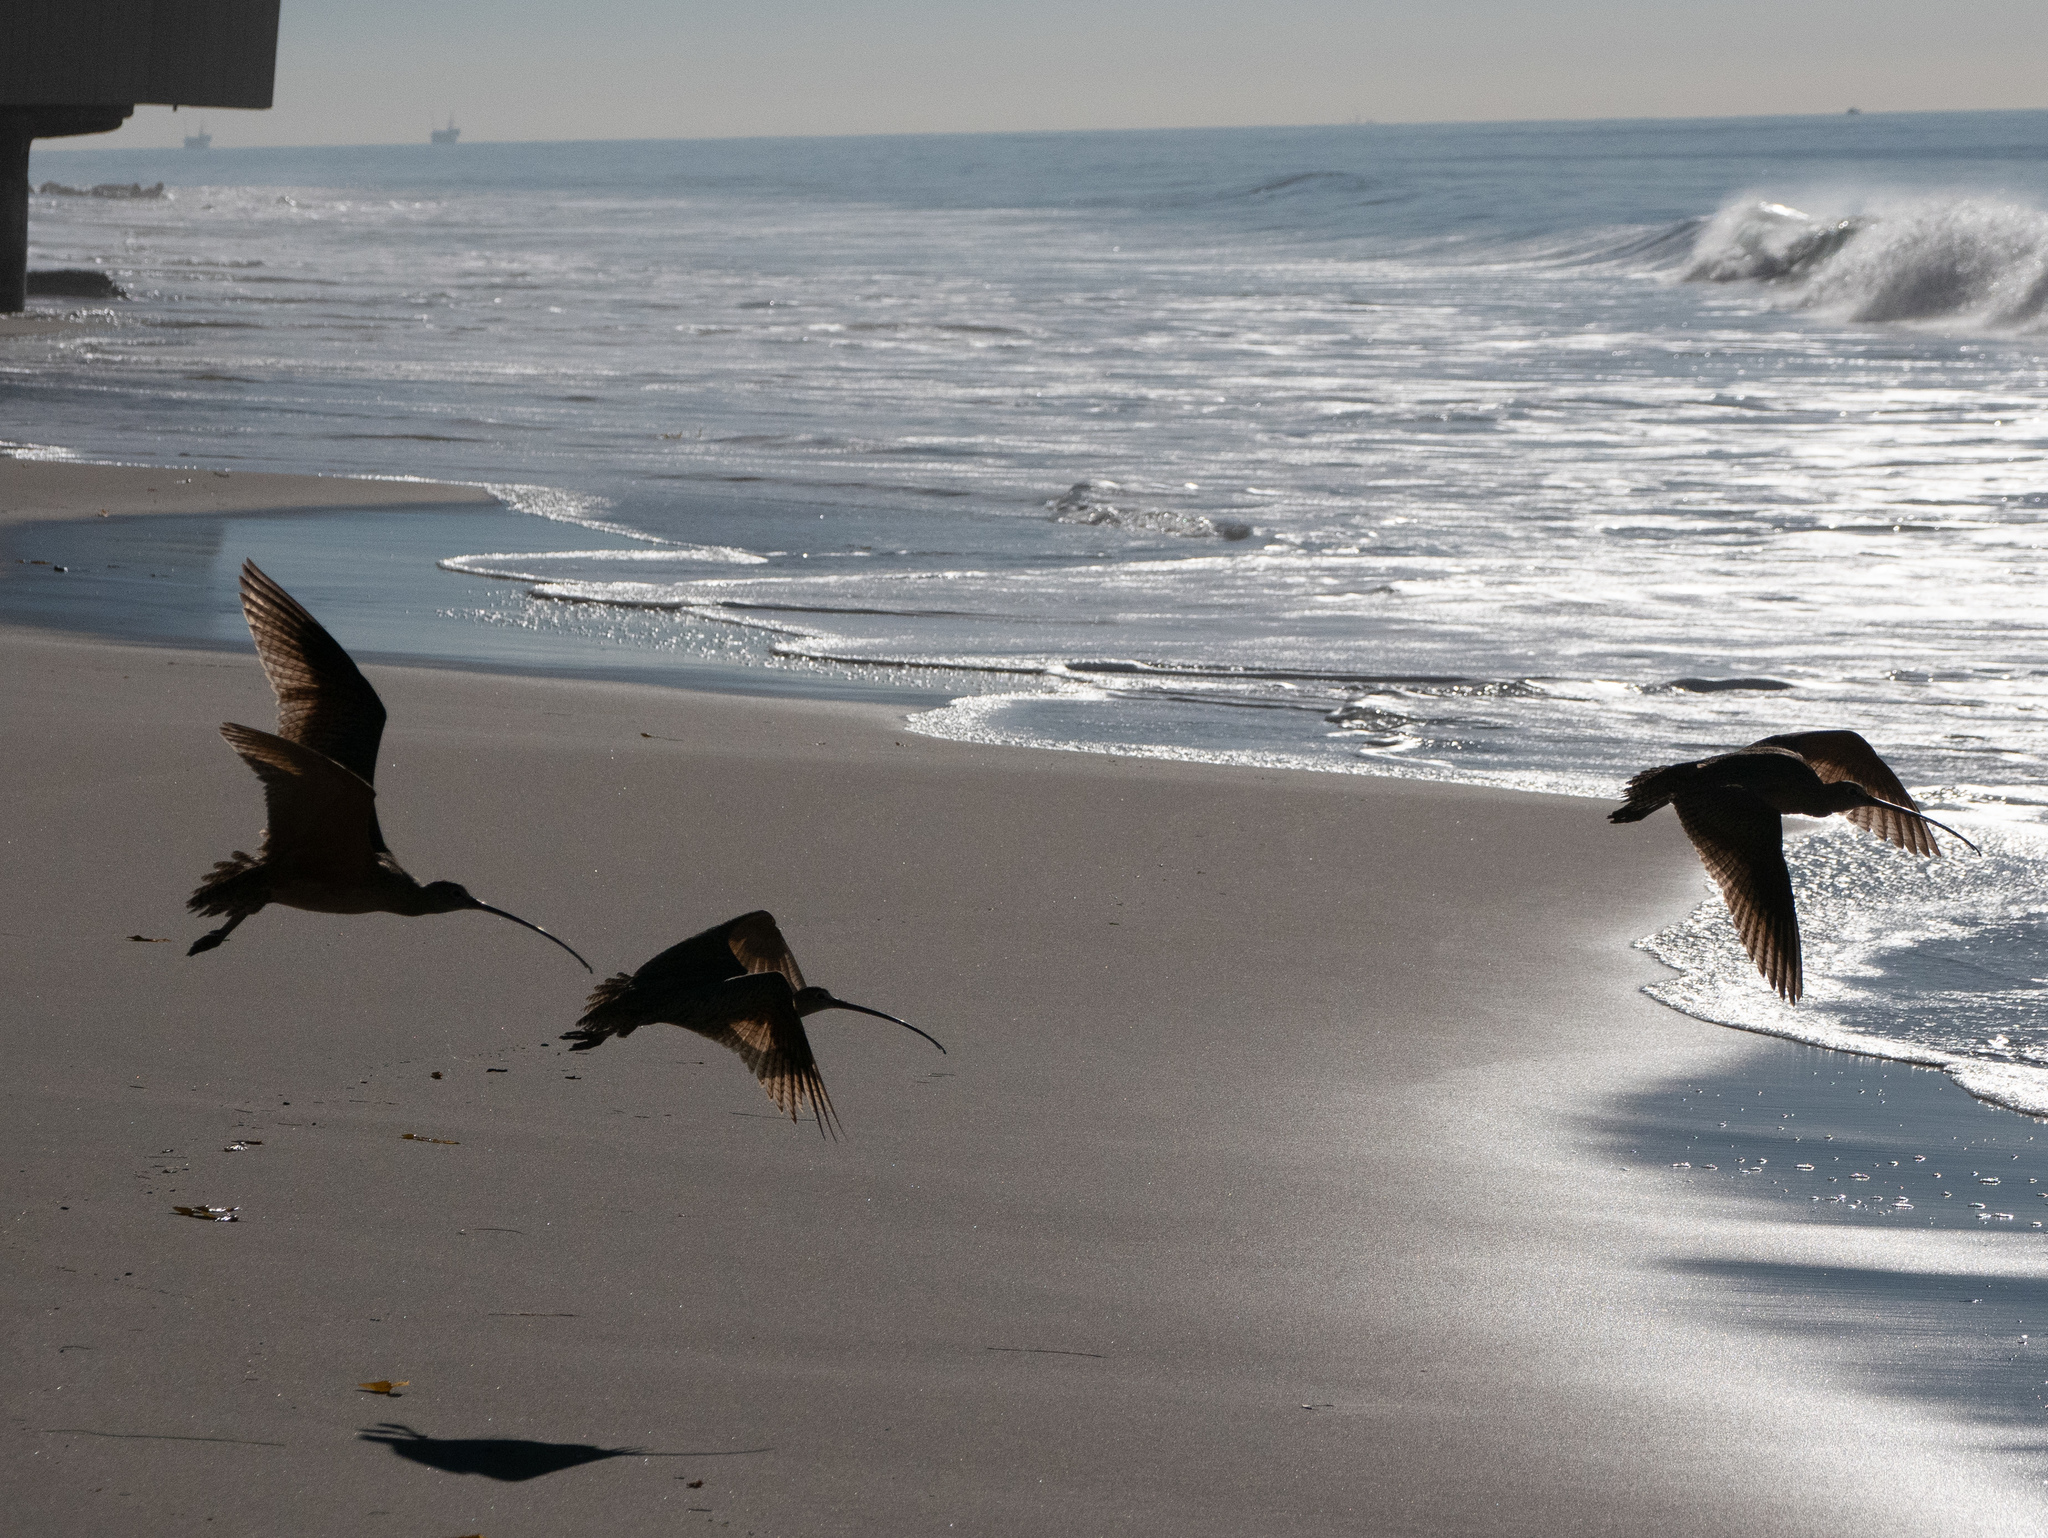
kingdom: Animalia
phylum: Chordata
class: Aves
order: Charadriiformes
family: Scolopacidae
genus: Numenius
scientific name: Numenius americanus
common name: Long-billed curlew
